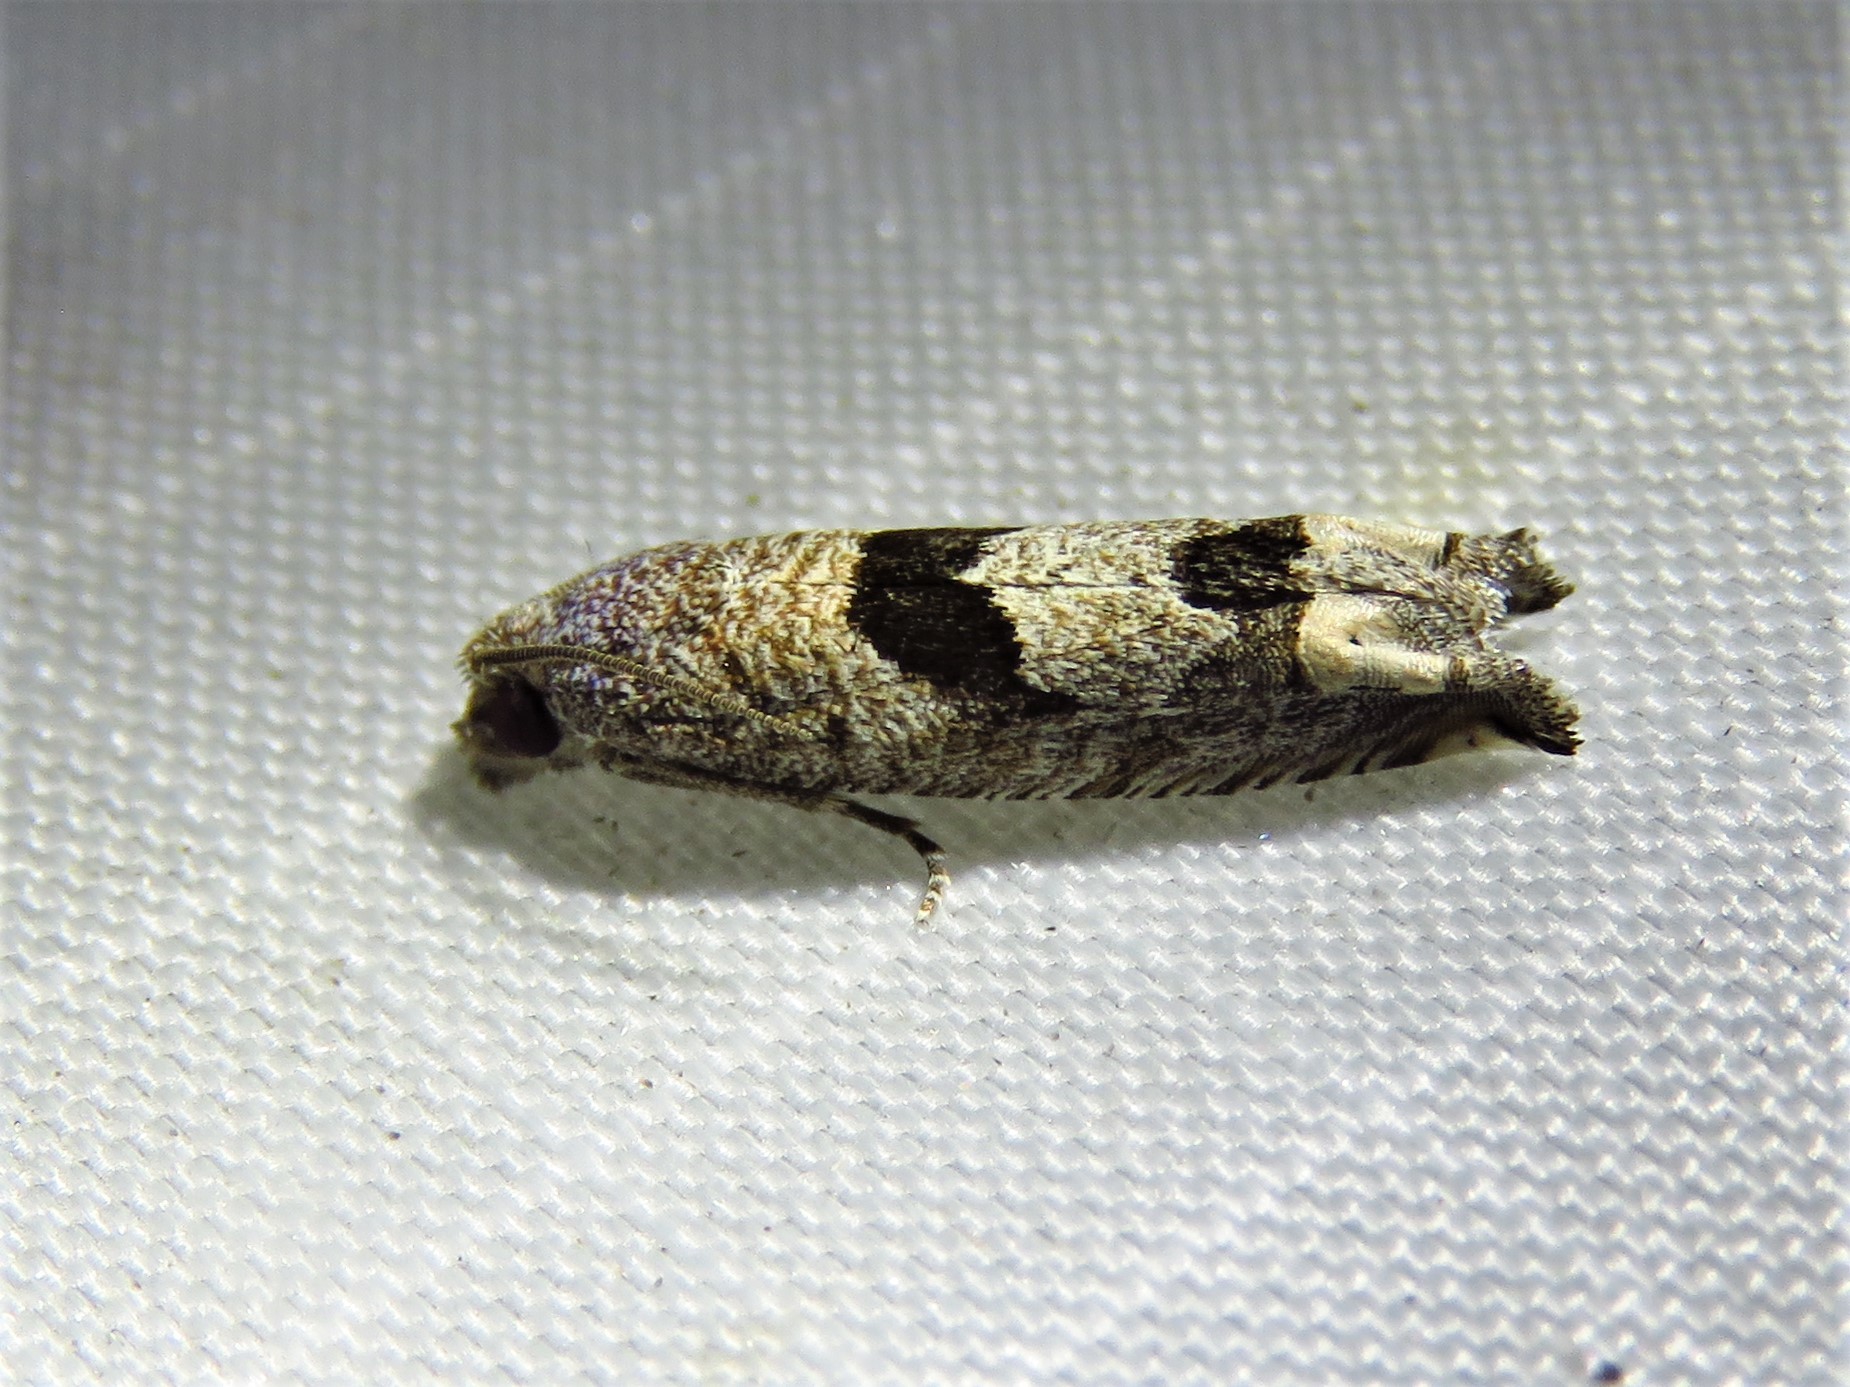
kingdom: Animalia
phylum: Arthropoda
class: Insecta
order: Lepidoptera
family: Tortricidae
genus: Suleima
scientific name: Suleima helianthana
